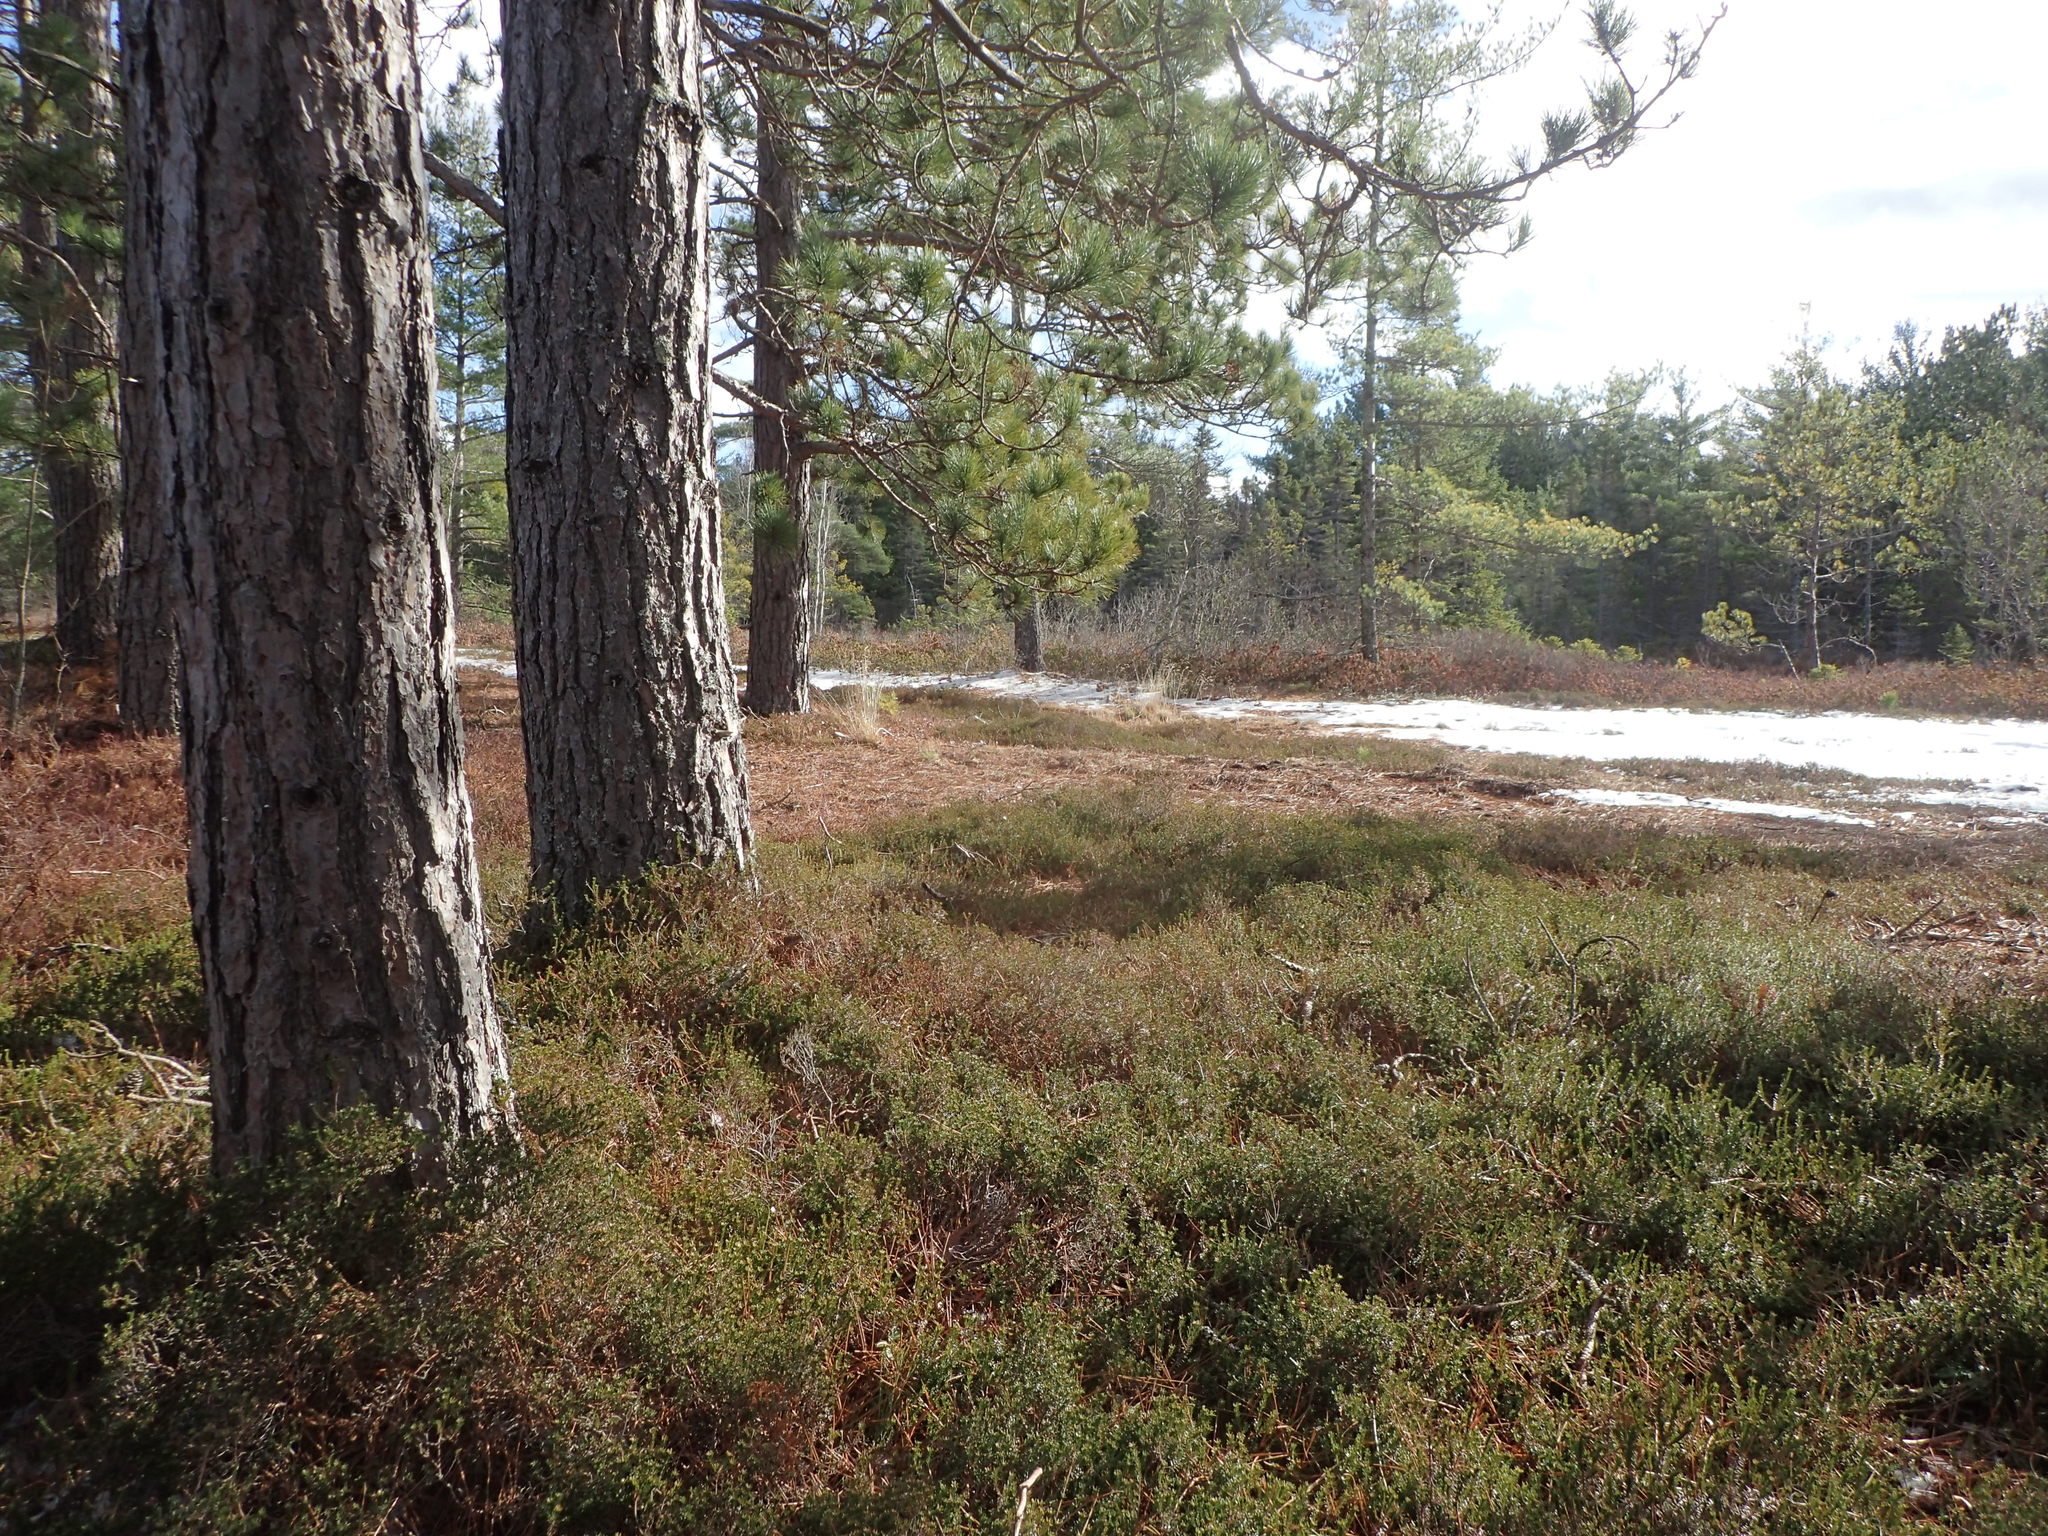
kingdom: Plantae
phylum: Tracheophyta
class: Pinopsida
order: Pinales
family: Pinaceae
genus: Pinus
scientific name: Pinus resinosa
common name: Norway pine
